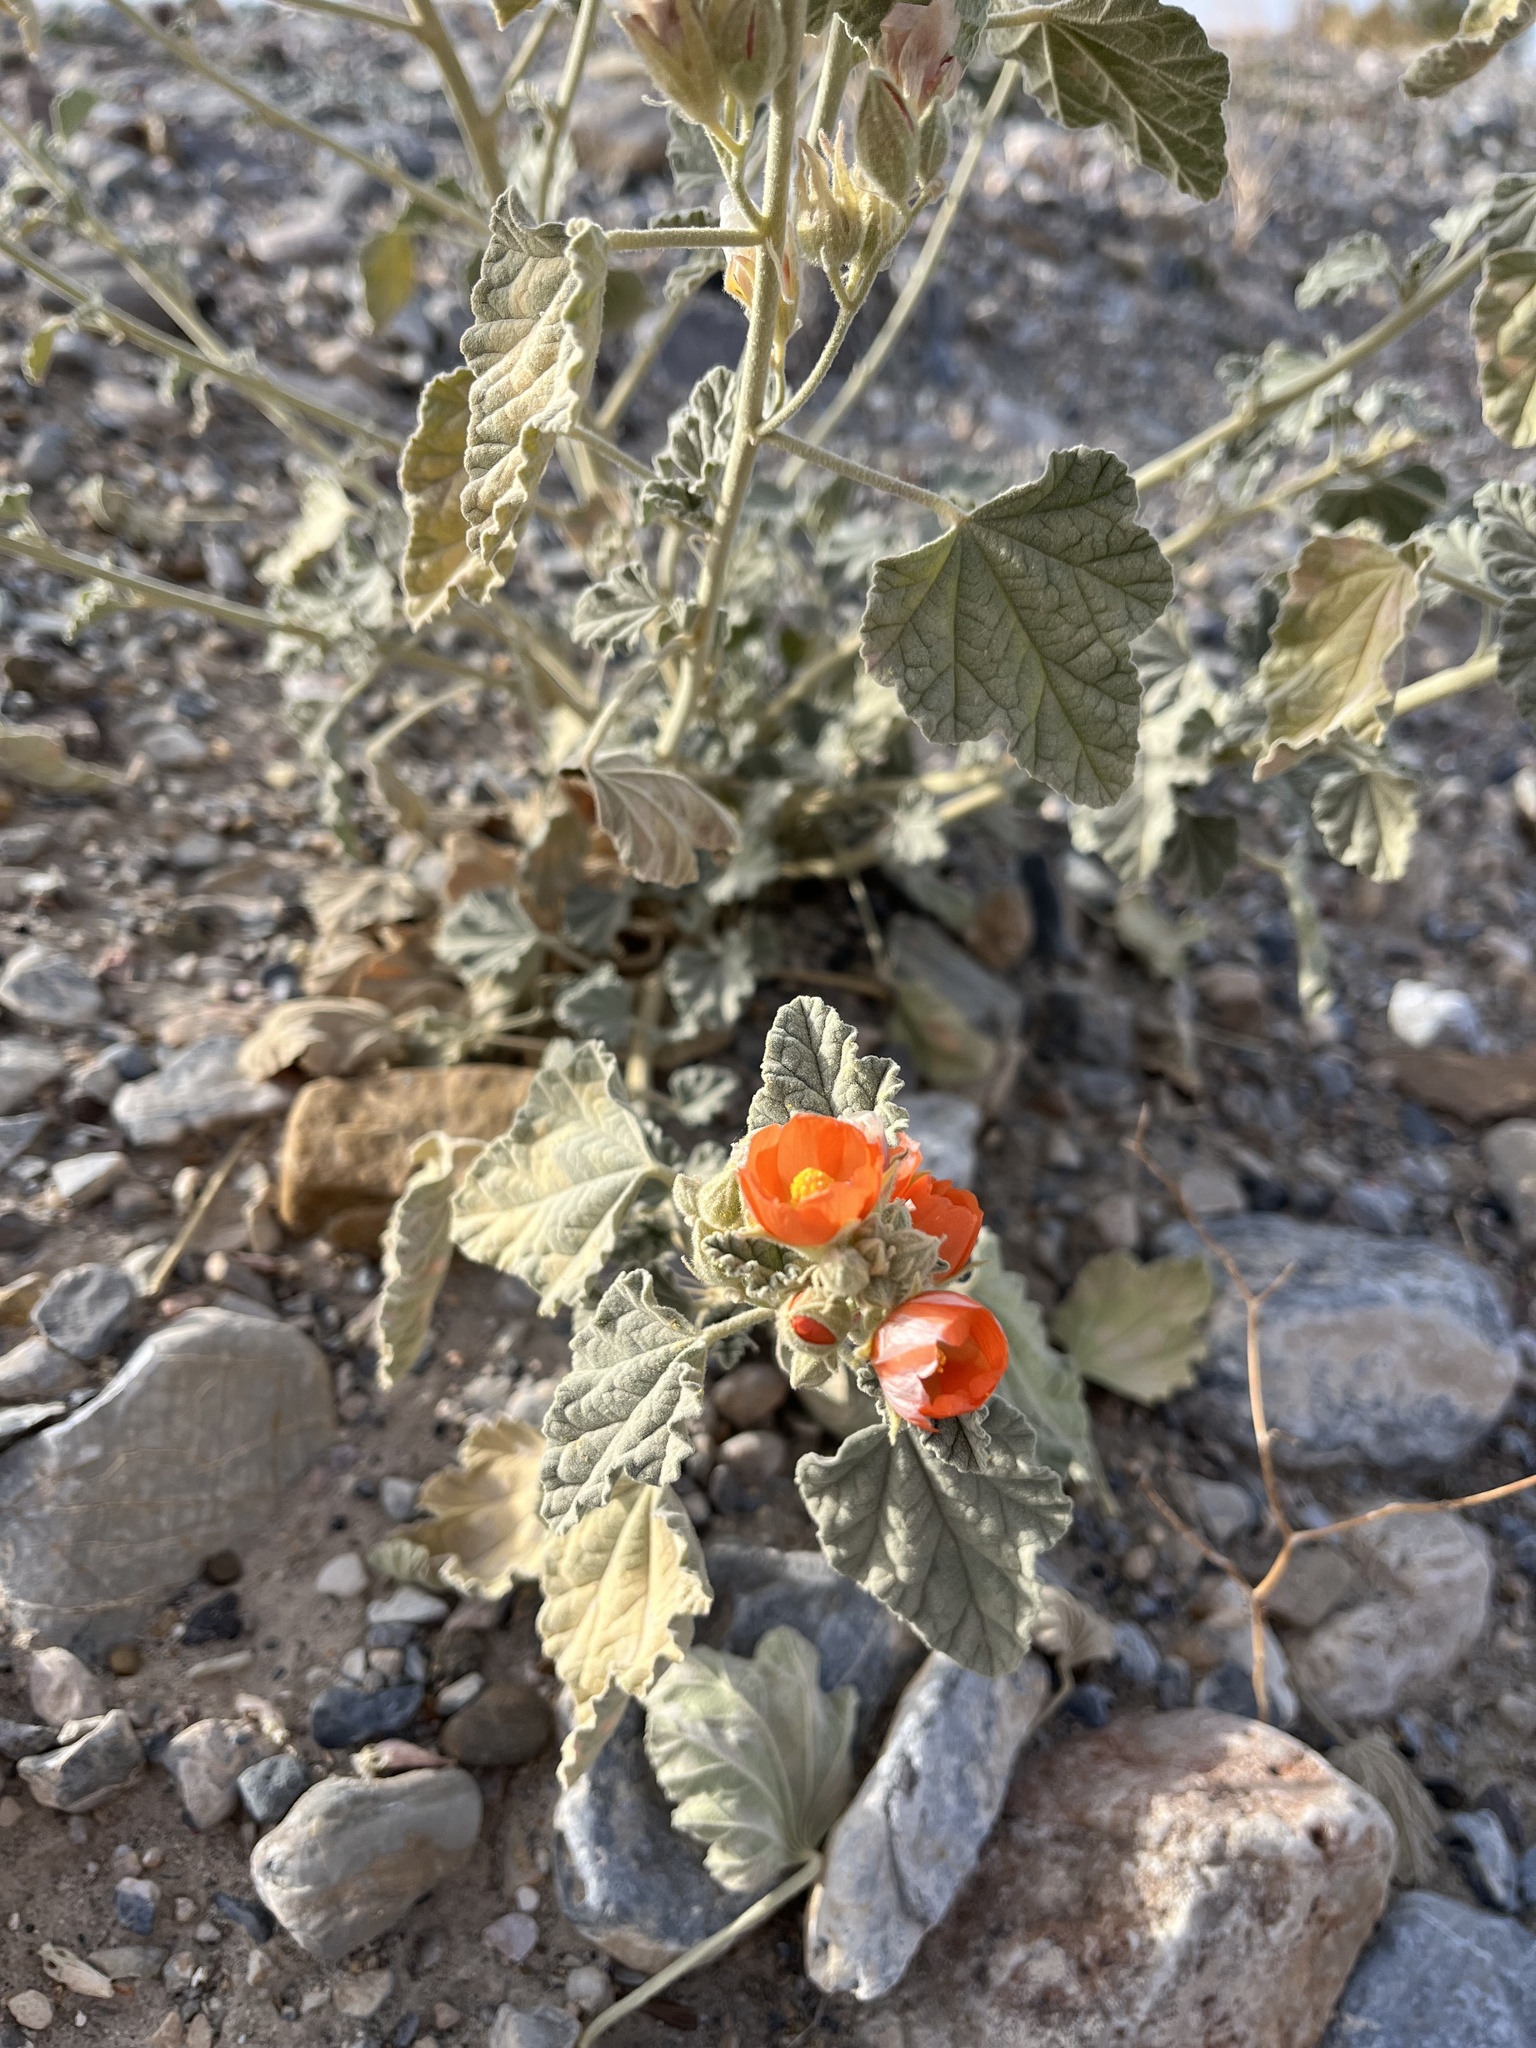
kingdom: Plantae
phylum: Tracheophyta
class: Magnoliopsida
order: Malvales
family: Malvaceae
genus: Sphaeralcea
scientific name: Sphaeralcea ambigua
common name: Apricot globe-mallow
